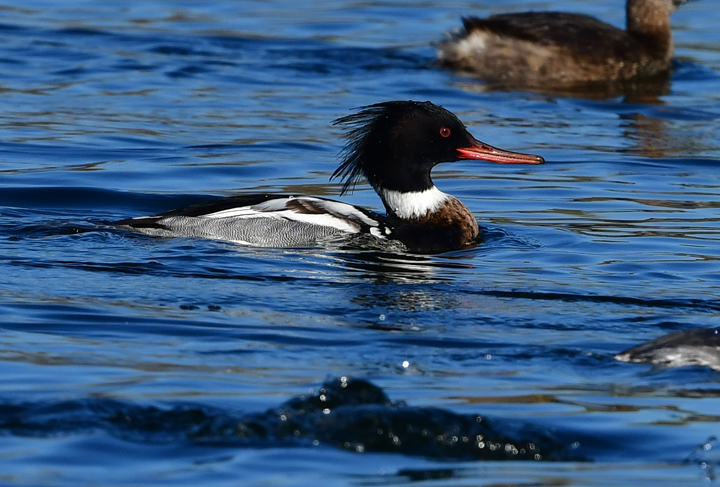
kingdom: Animalia
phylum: Chordata
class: Aves
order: Anseriformes
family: Anatidae
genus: Mergus
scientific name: Mergus serrator
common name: Red-breasted merganser
